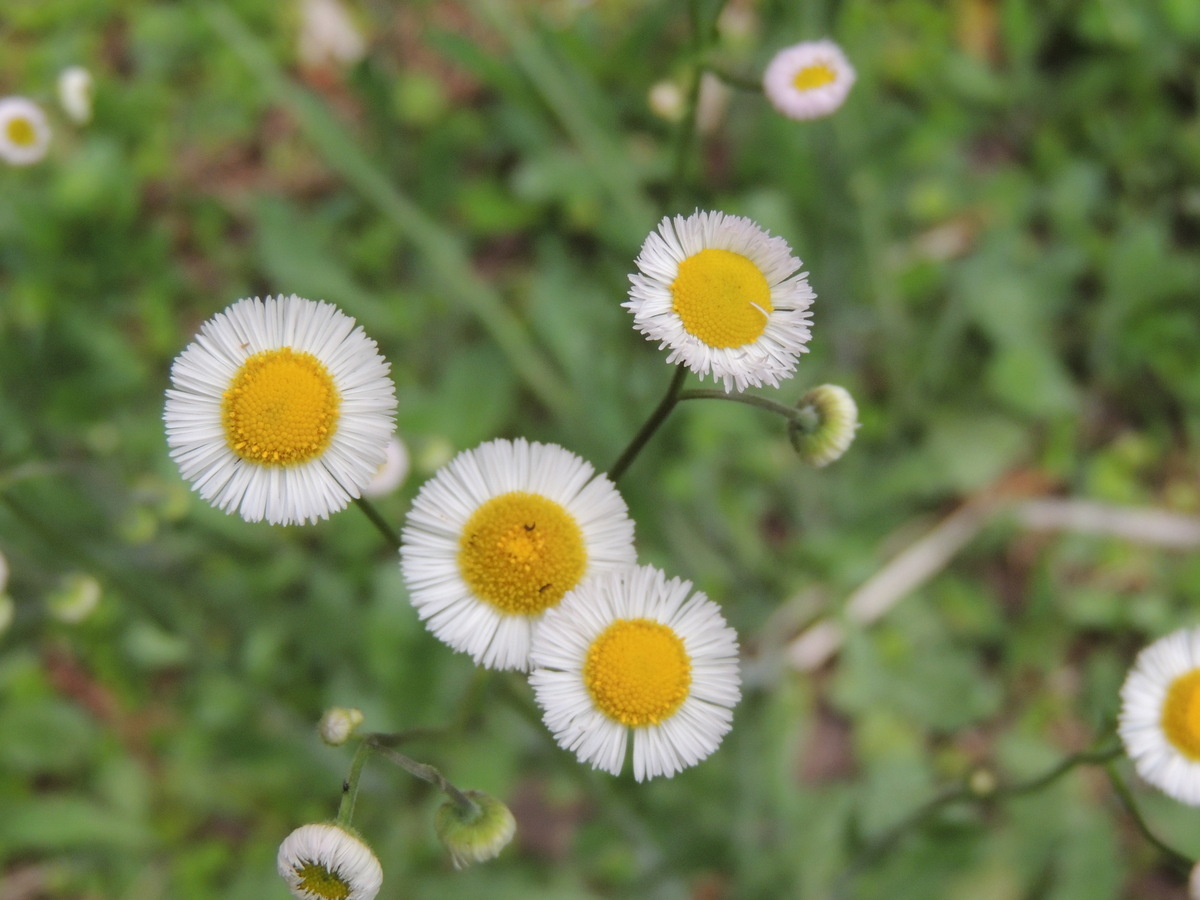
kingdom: Plantae
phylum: Tracheophyta
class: Magnoliopsida
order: Asterales
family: Asteraceae
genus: Erigeron
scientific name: Erigeron quercifolius
